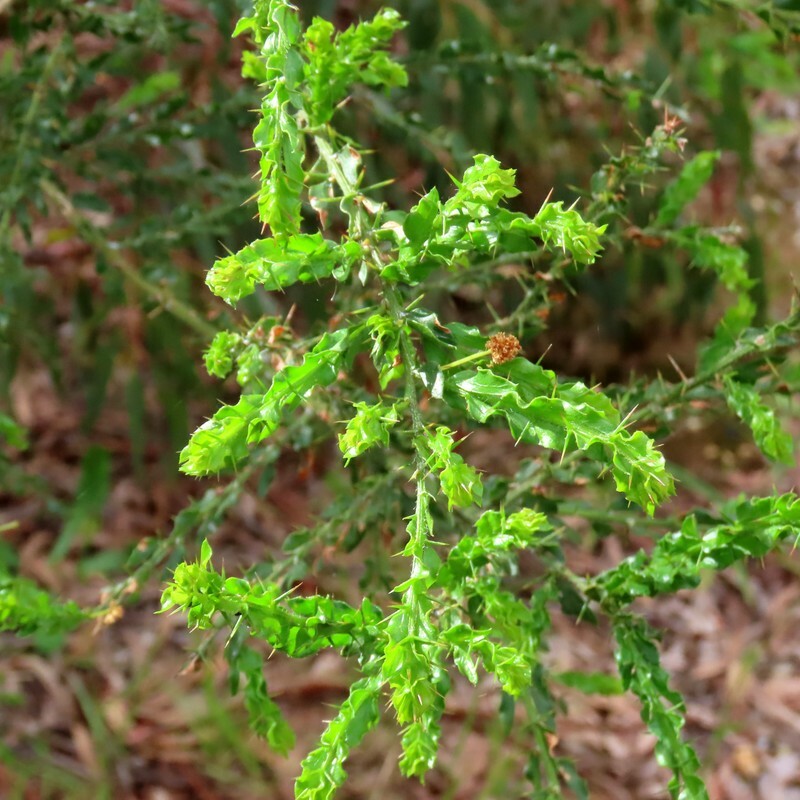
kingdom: Plantae
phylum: Tracheophyta
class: Magnoliopsida
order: Fabales
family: Fabaceae
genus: Acacia
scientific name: Acacia paradoxa
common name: Paradox acacia
